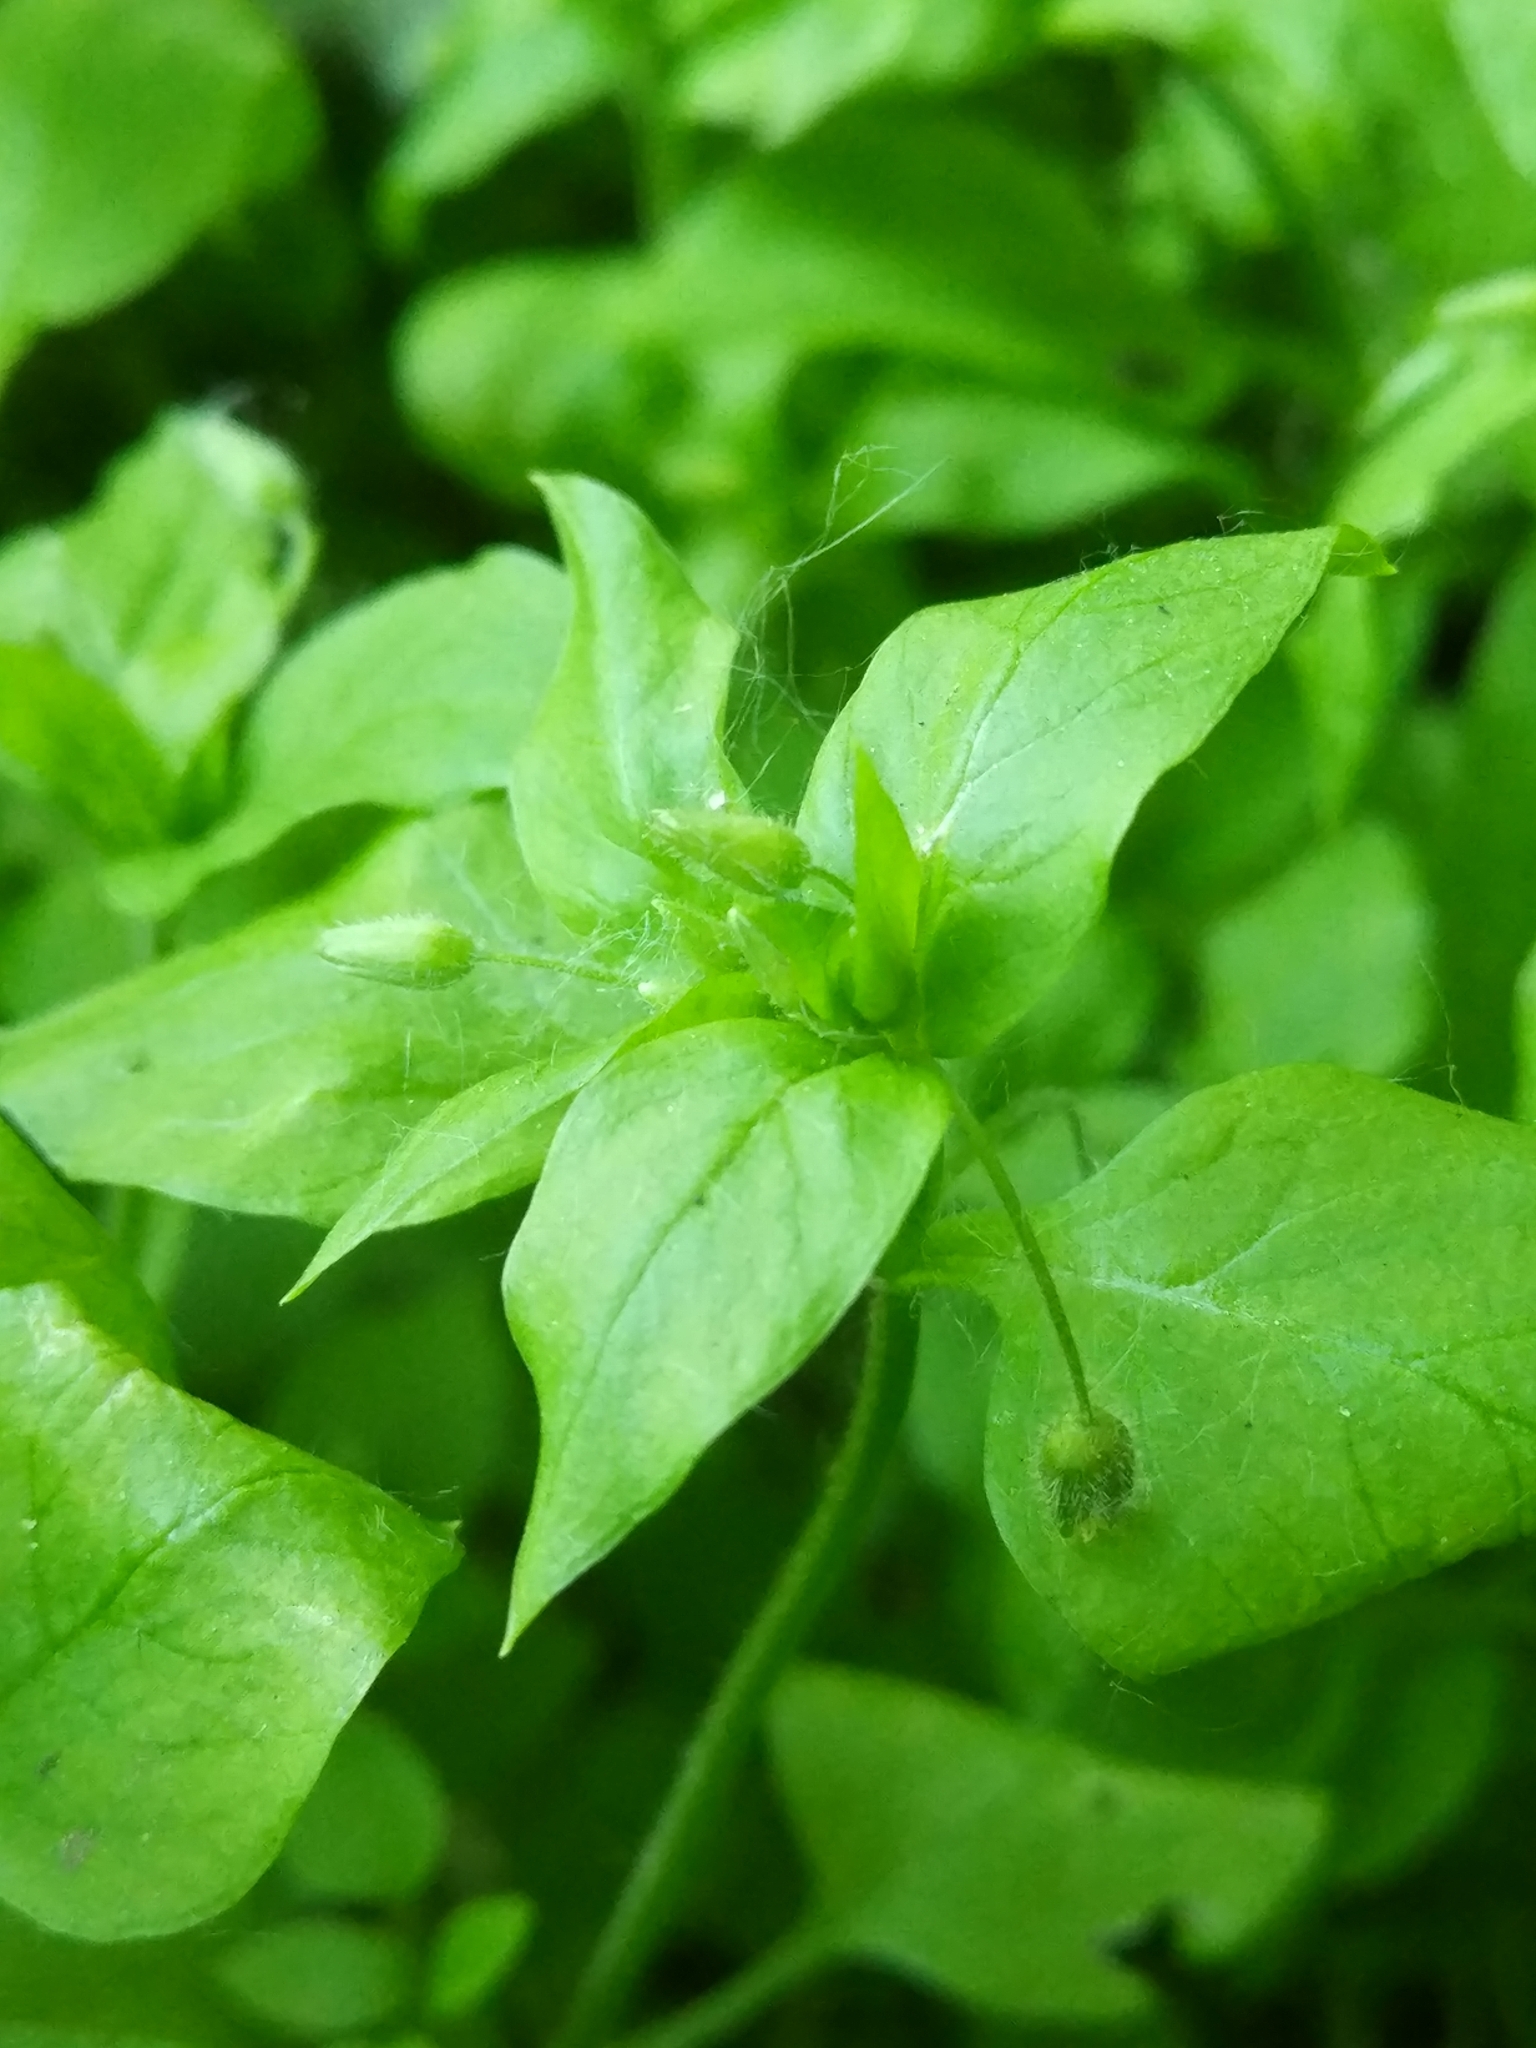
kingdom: Plantae
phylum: Tracheophyta
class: Magnoliopsida
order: Caryophyllales
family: Caryophyllaceae
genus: Stellaria
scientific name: Stellaria media
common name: Common chickweed
